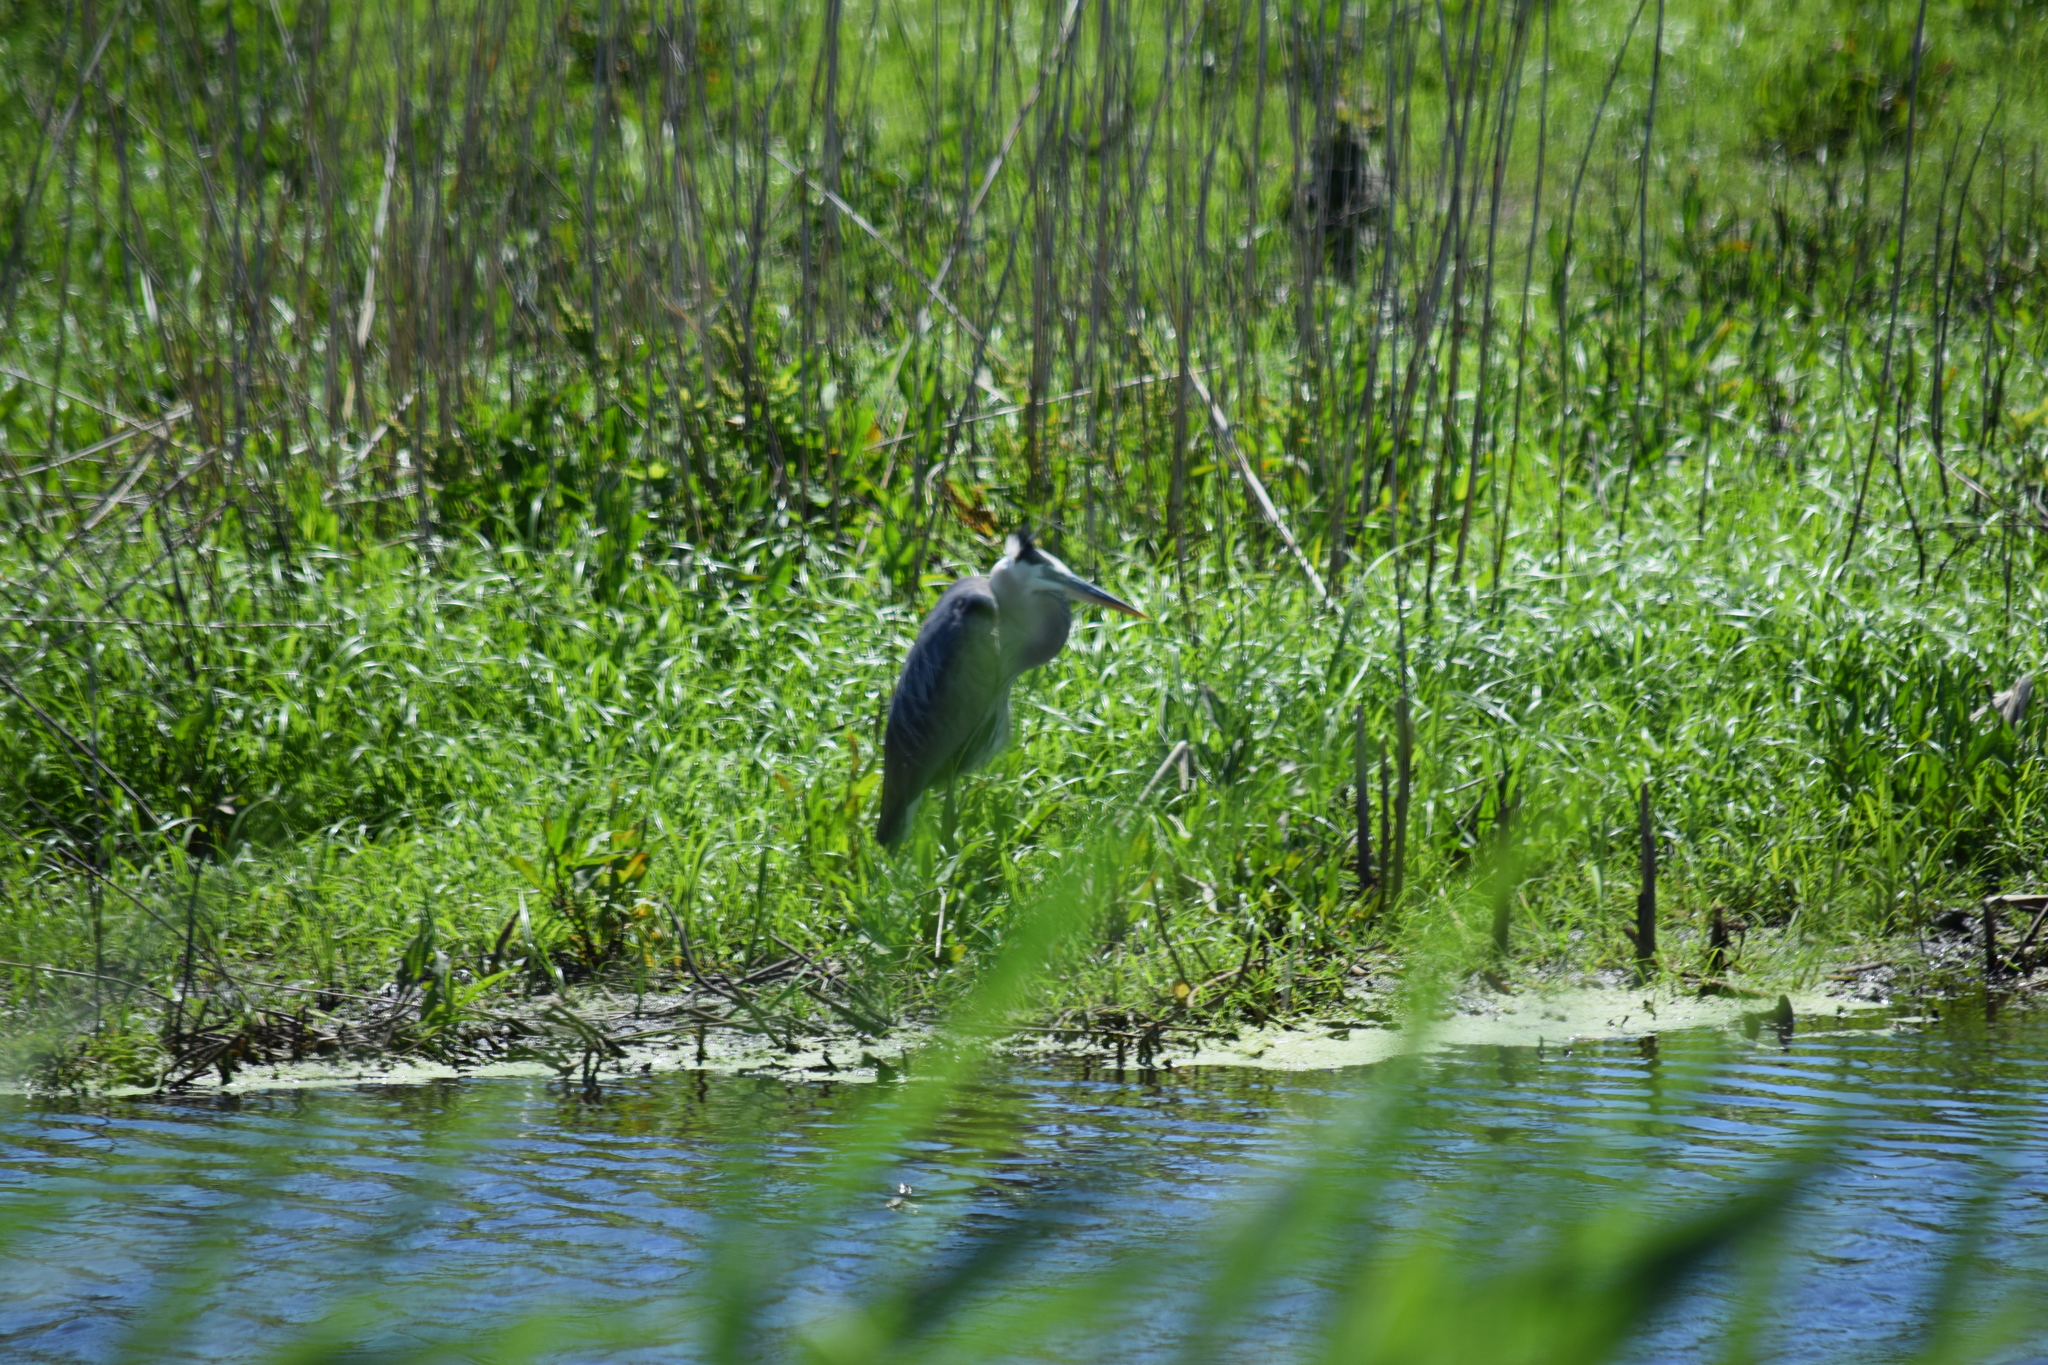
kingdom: Animalia
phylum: Chordata
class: Aves
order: Pelecaniformes
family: Ardeidae
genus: Ardea
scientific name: Ardea herodias
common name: Great blue heron
